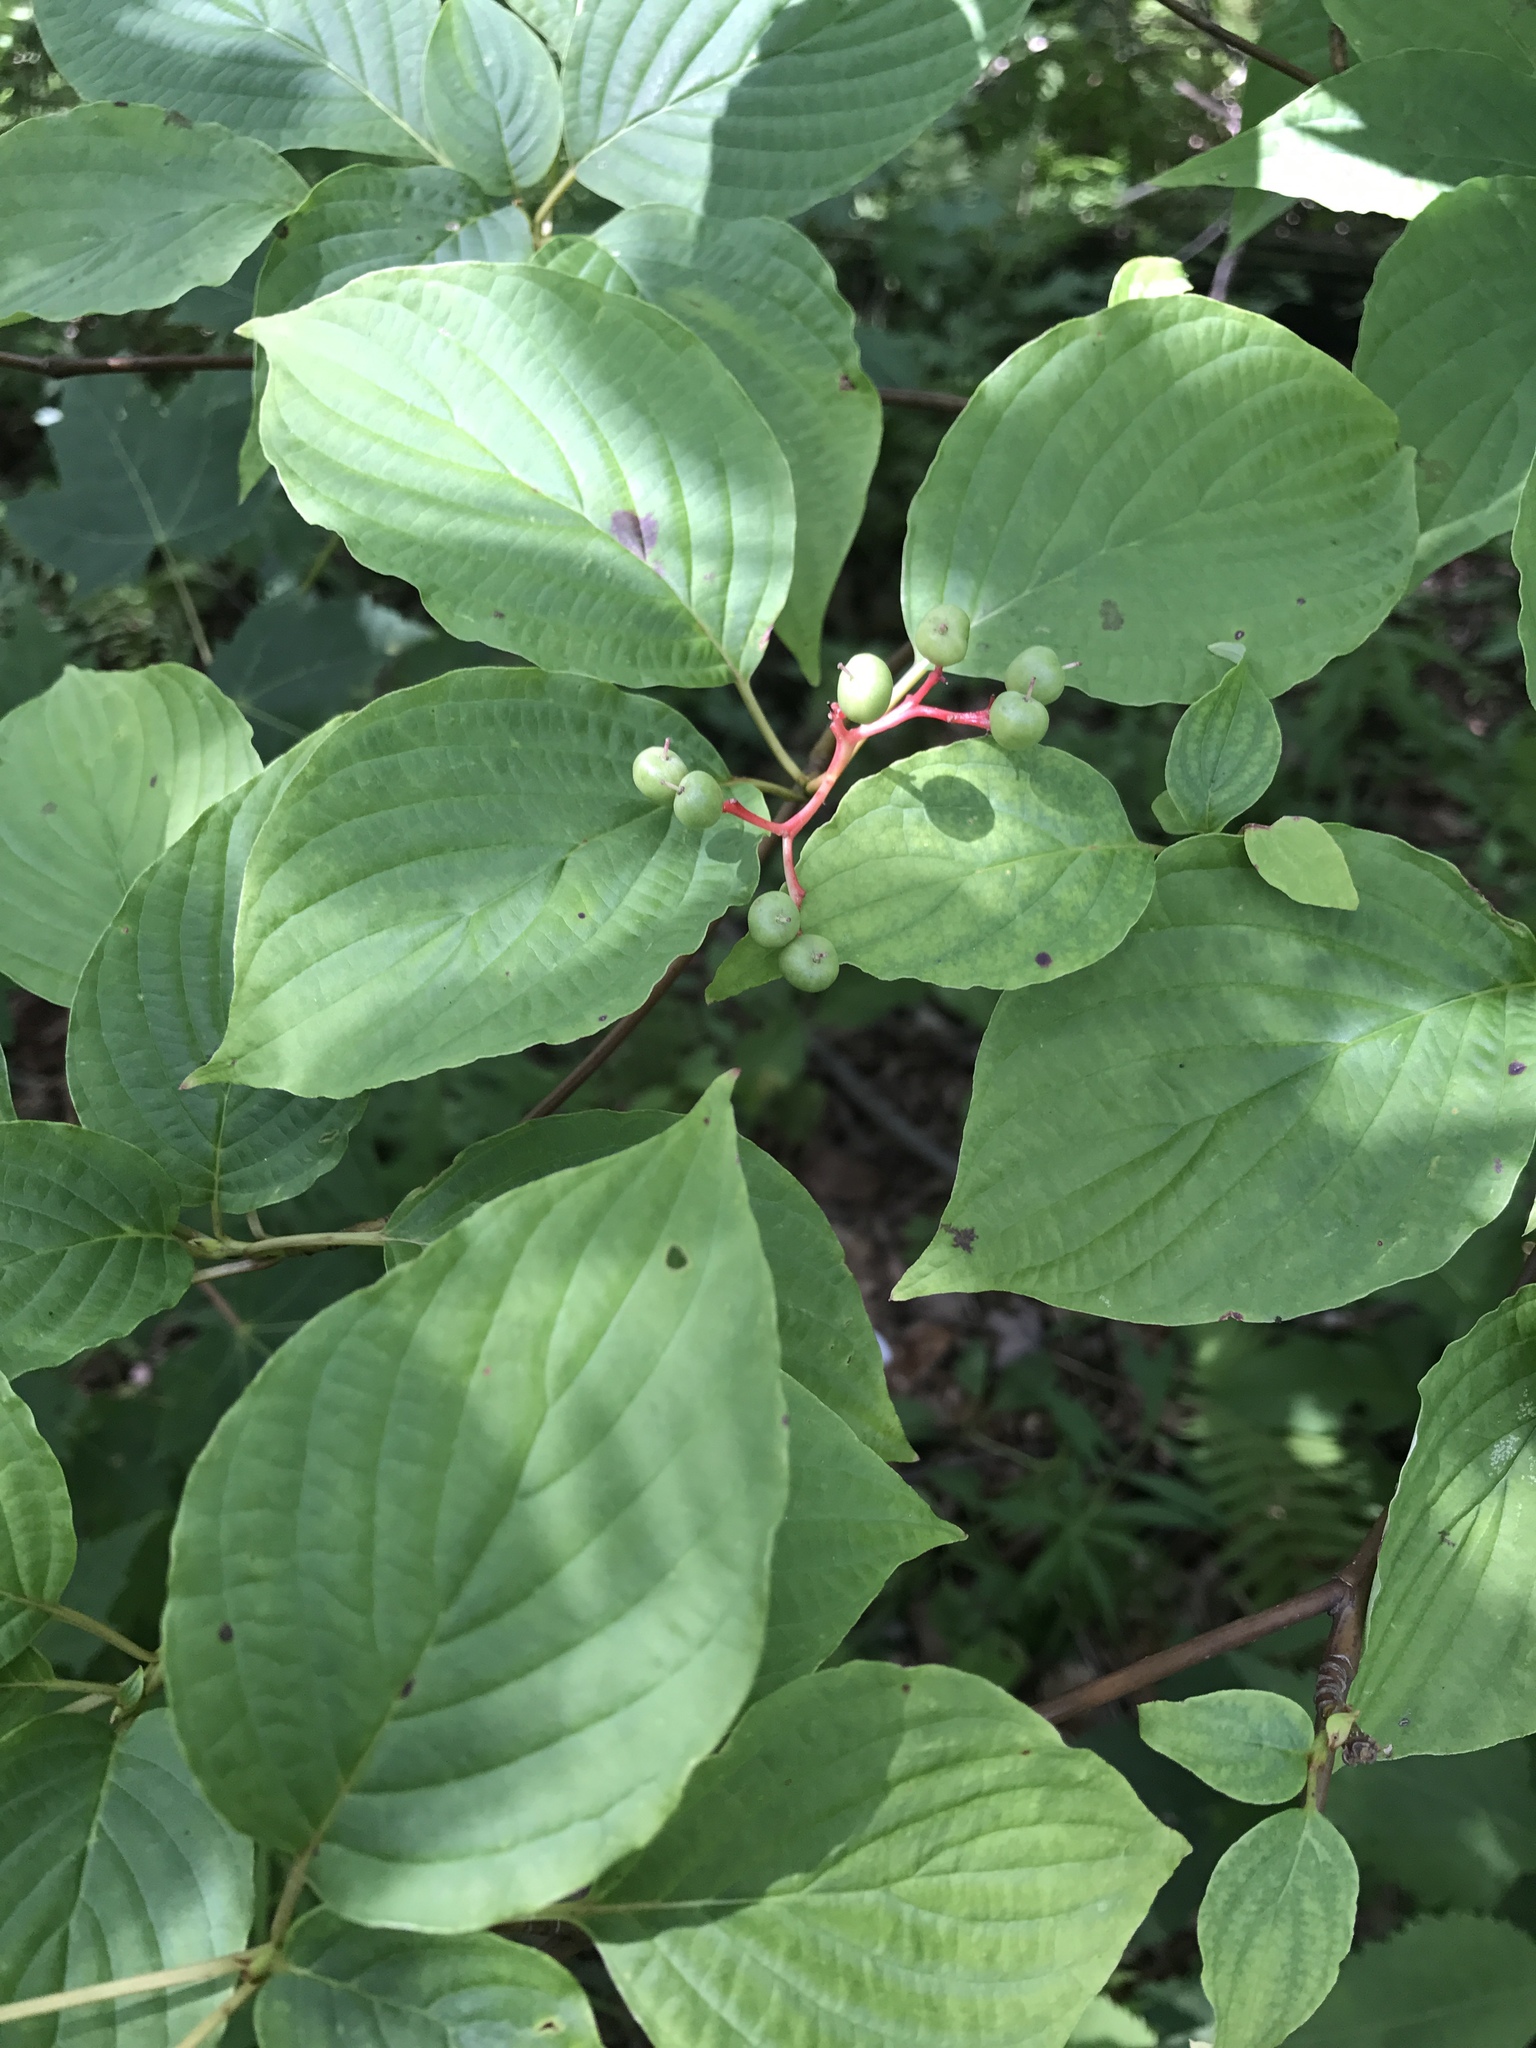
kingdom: Plantae
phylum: Tracheophyta
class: Magnoliopsida
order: Cornales
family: Cornaceae
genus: Cornus
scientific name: Cornus alternifolia
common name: Pagoda dogwood
